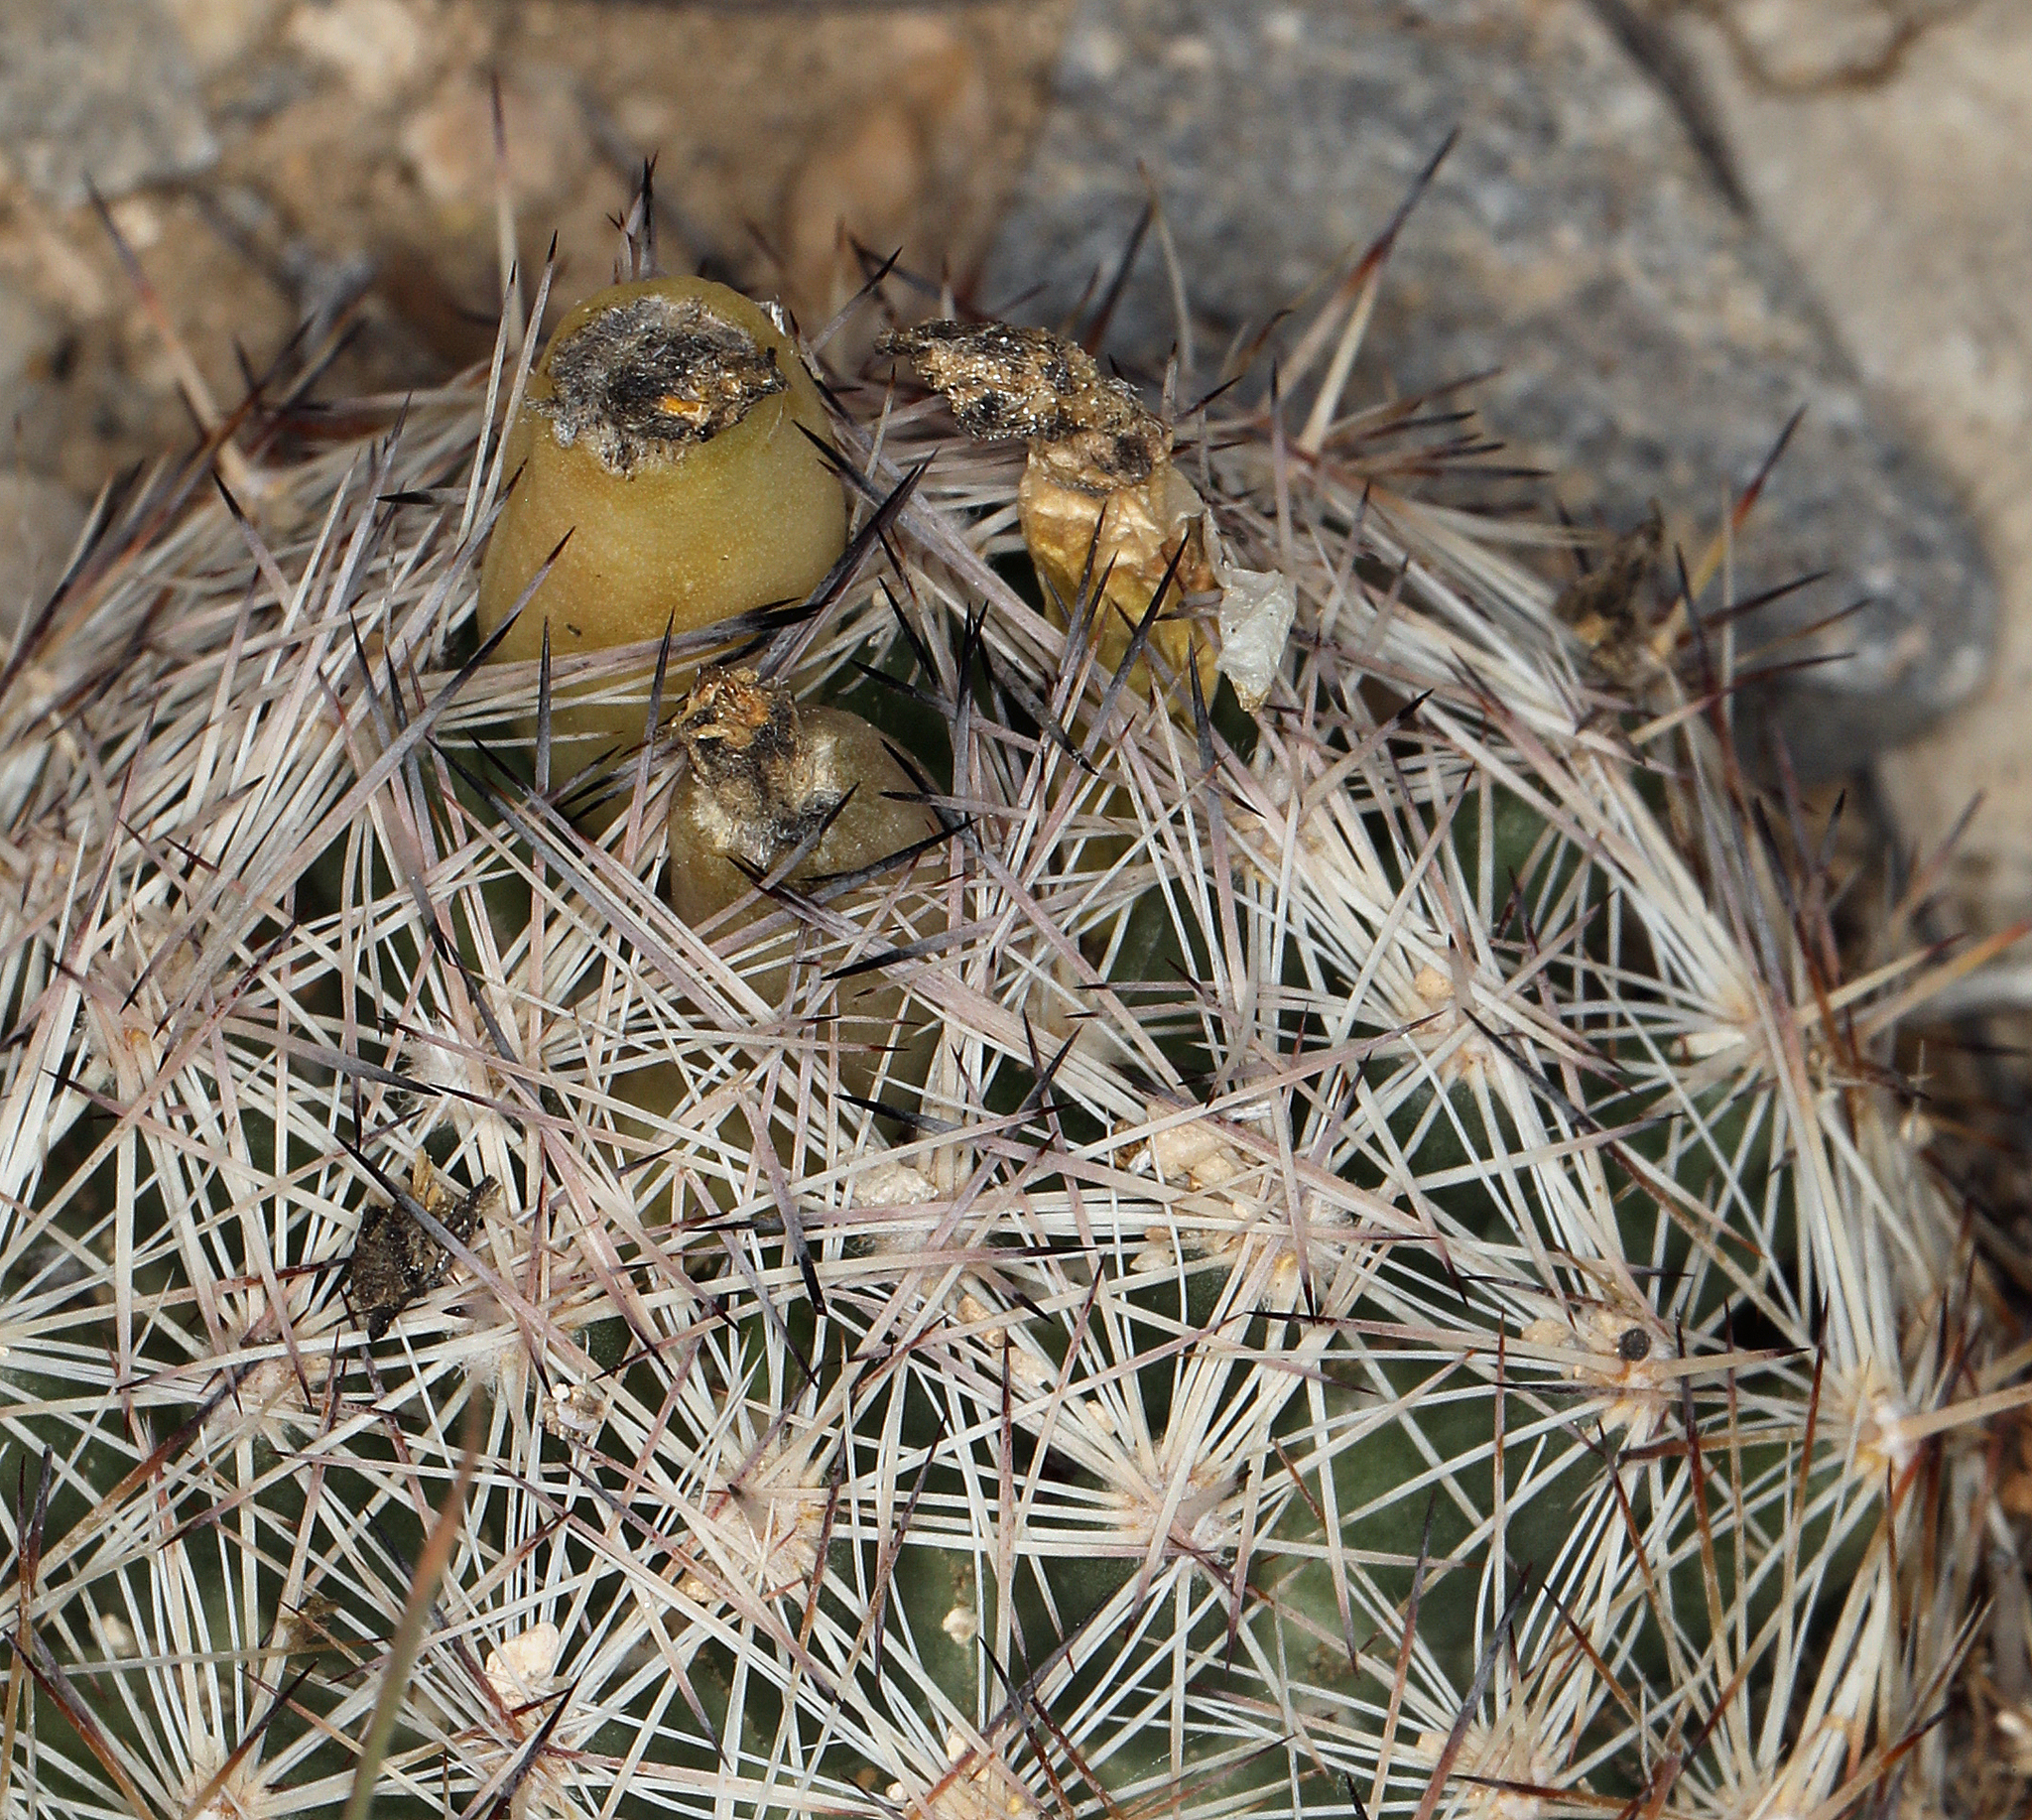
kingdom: Plantae
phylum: Tracheophyta
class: Magnoliopsida
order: Caryophyllales
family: Cactaceae
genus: Pelecyphora
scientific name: Pelecyphora dasyacantha
